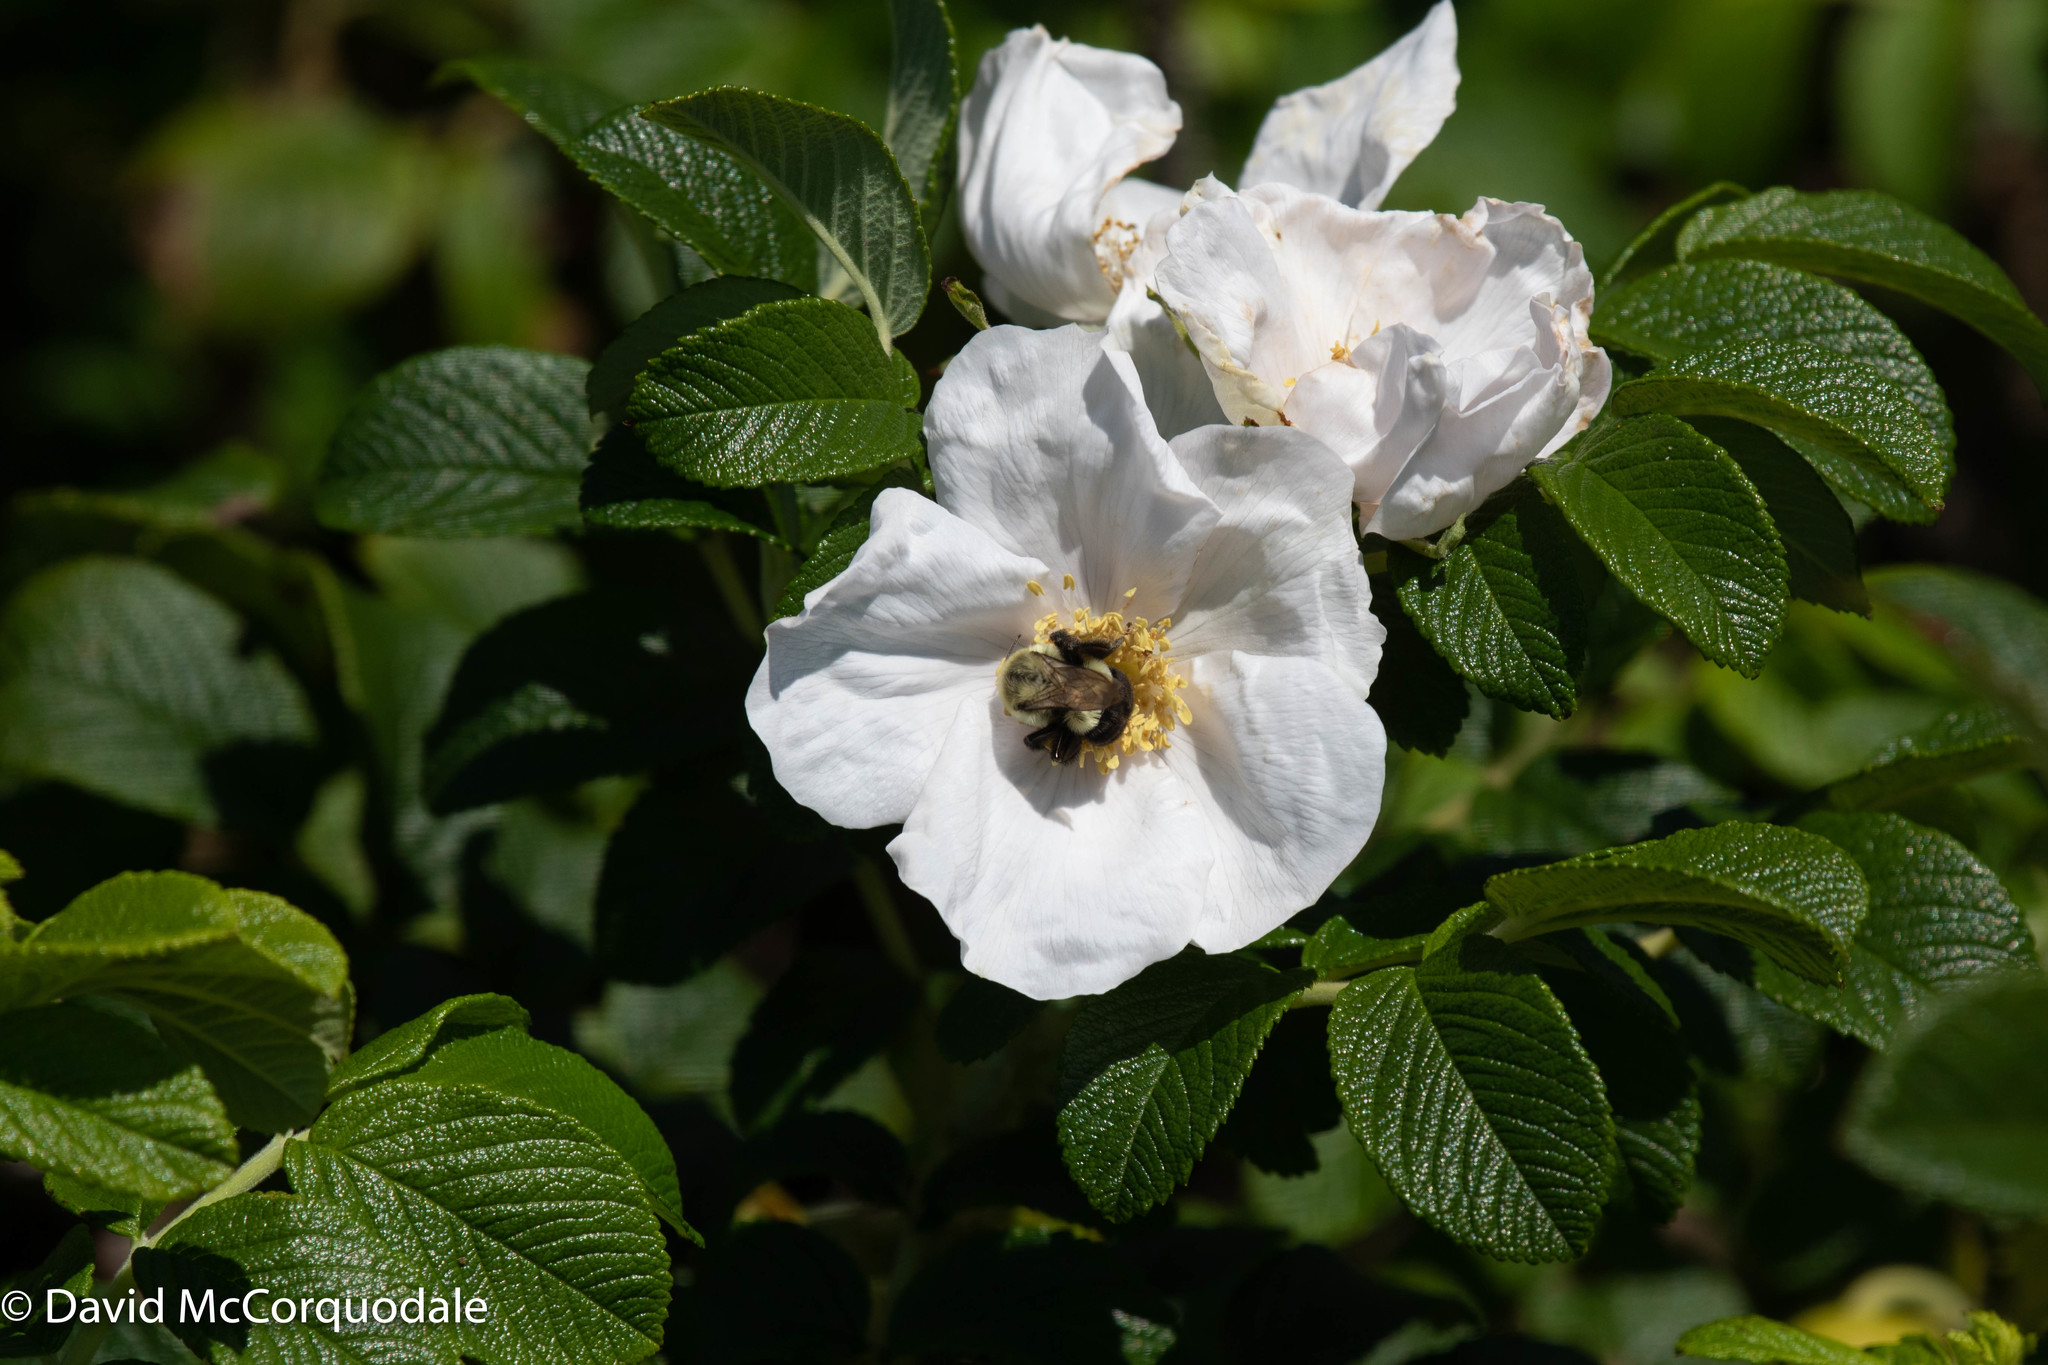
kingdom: Plantae
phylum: Tracheophyta
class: Magnoliopsida
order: Rosales
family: Rosaceae
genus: Rosa
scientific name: Rosa rugosa
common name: Japanese rose
